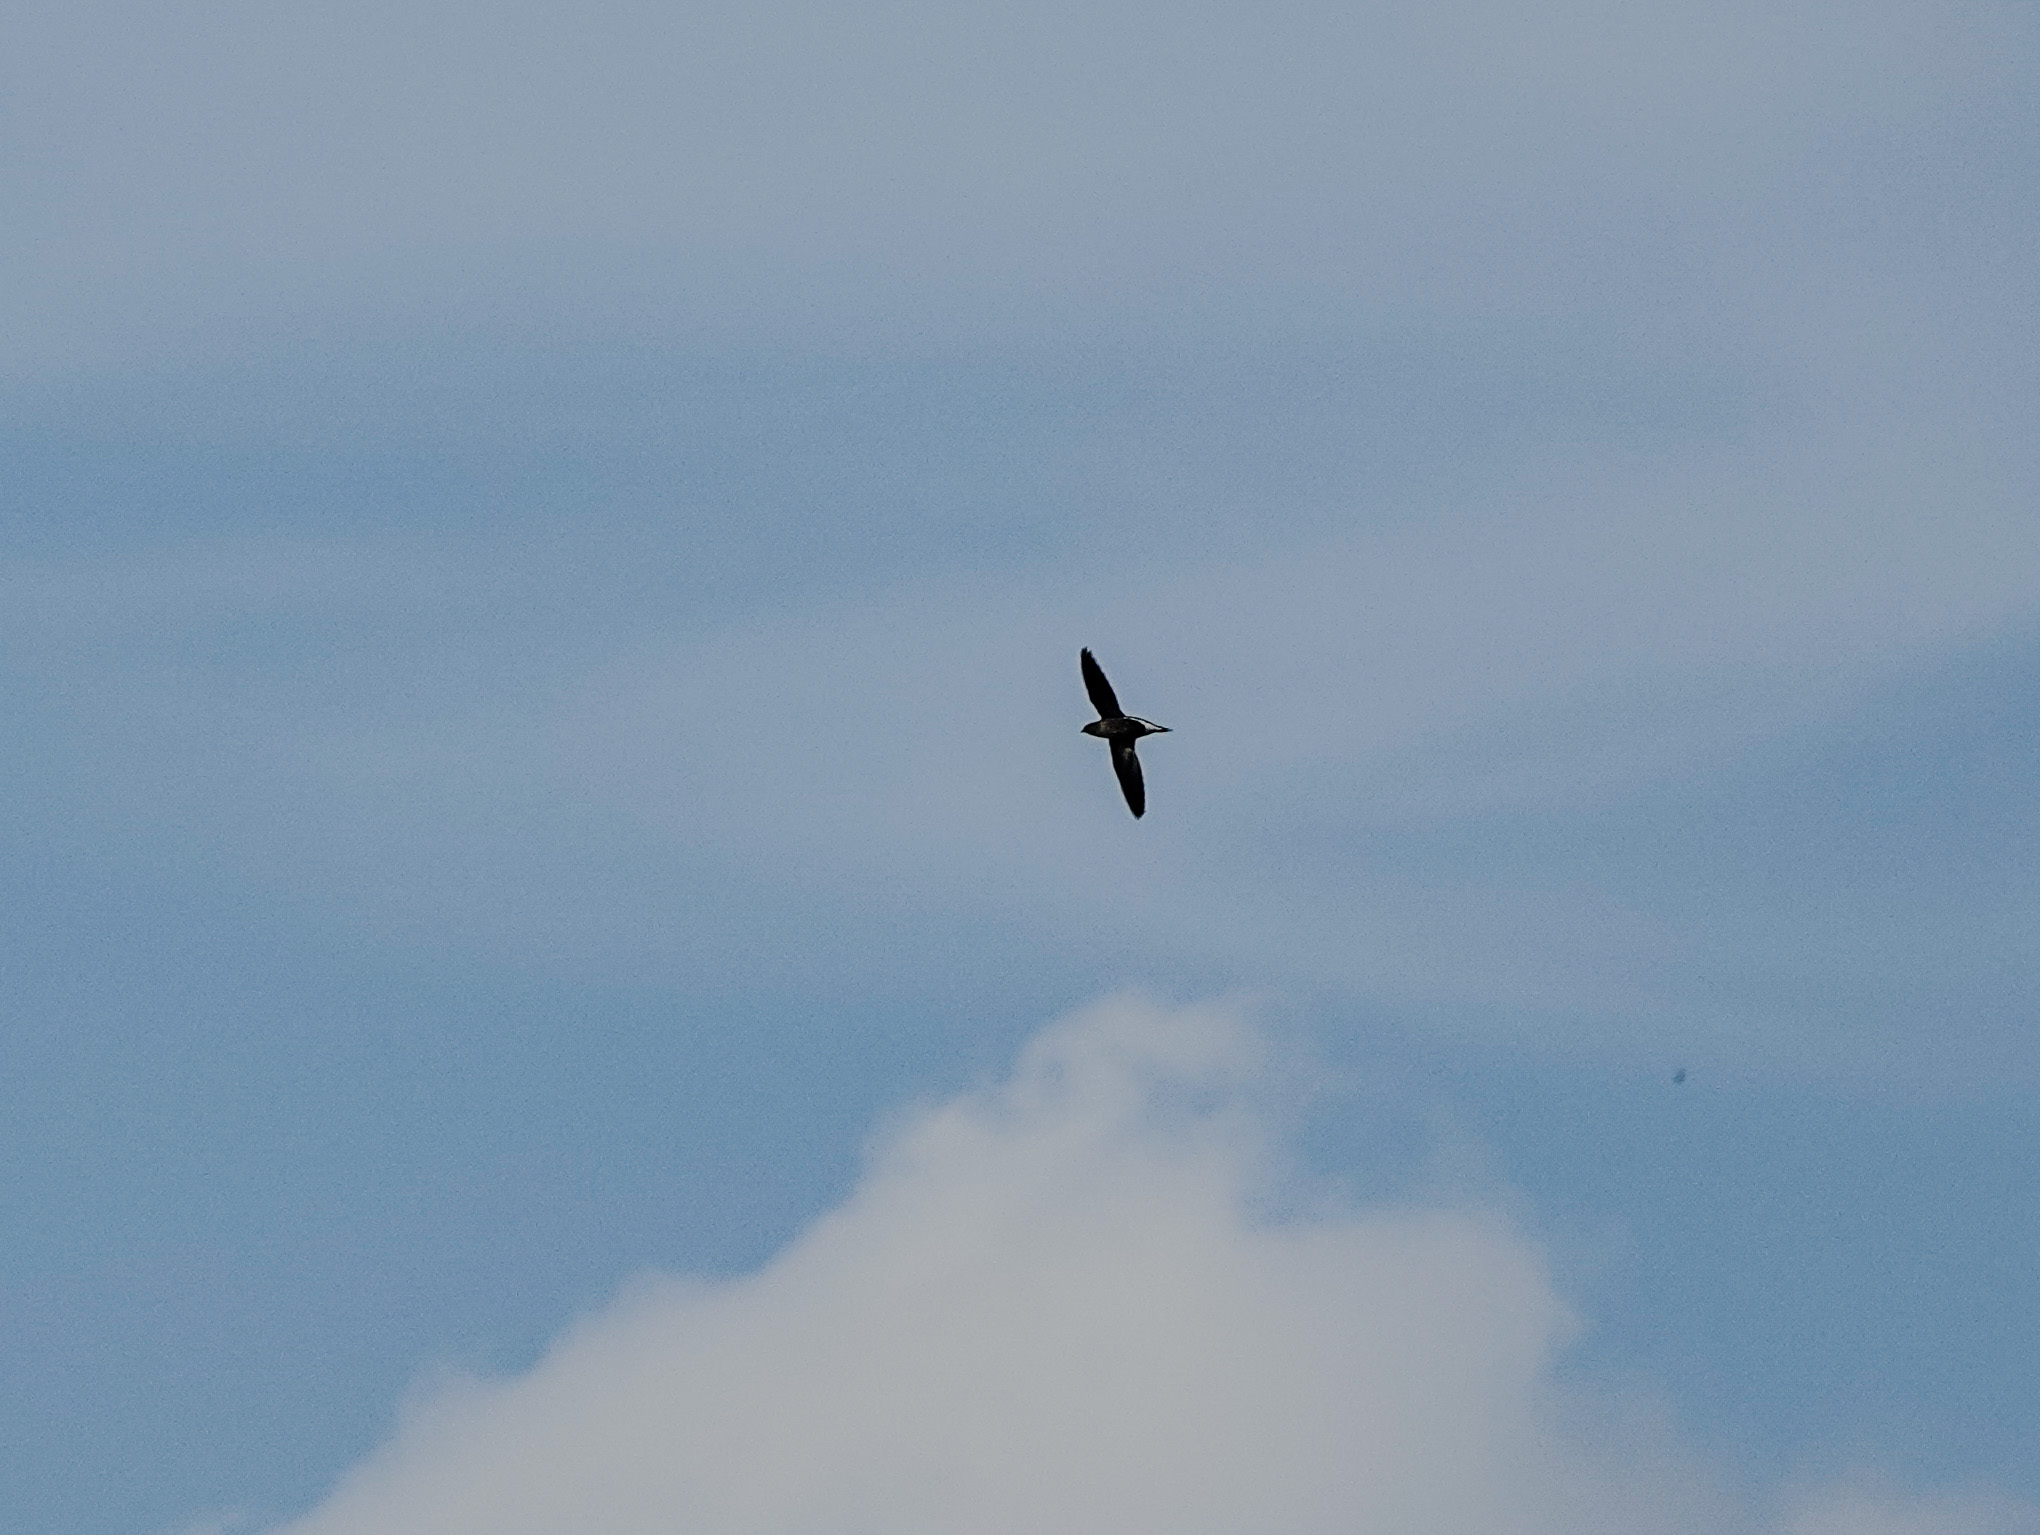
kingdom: Animalia
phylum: Chordata
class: Aves
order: Apodiformes
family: Apodidae
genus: Hirundapus
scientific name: Hirundapus giganteus
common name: Brown-backed needletail
